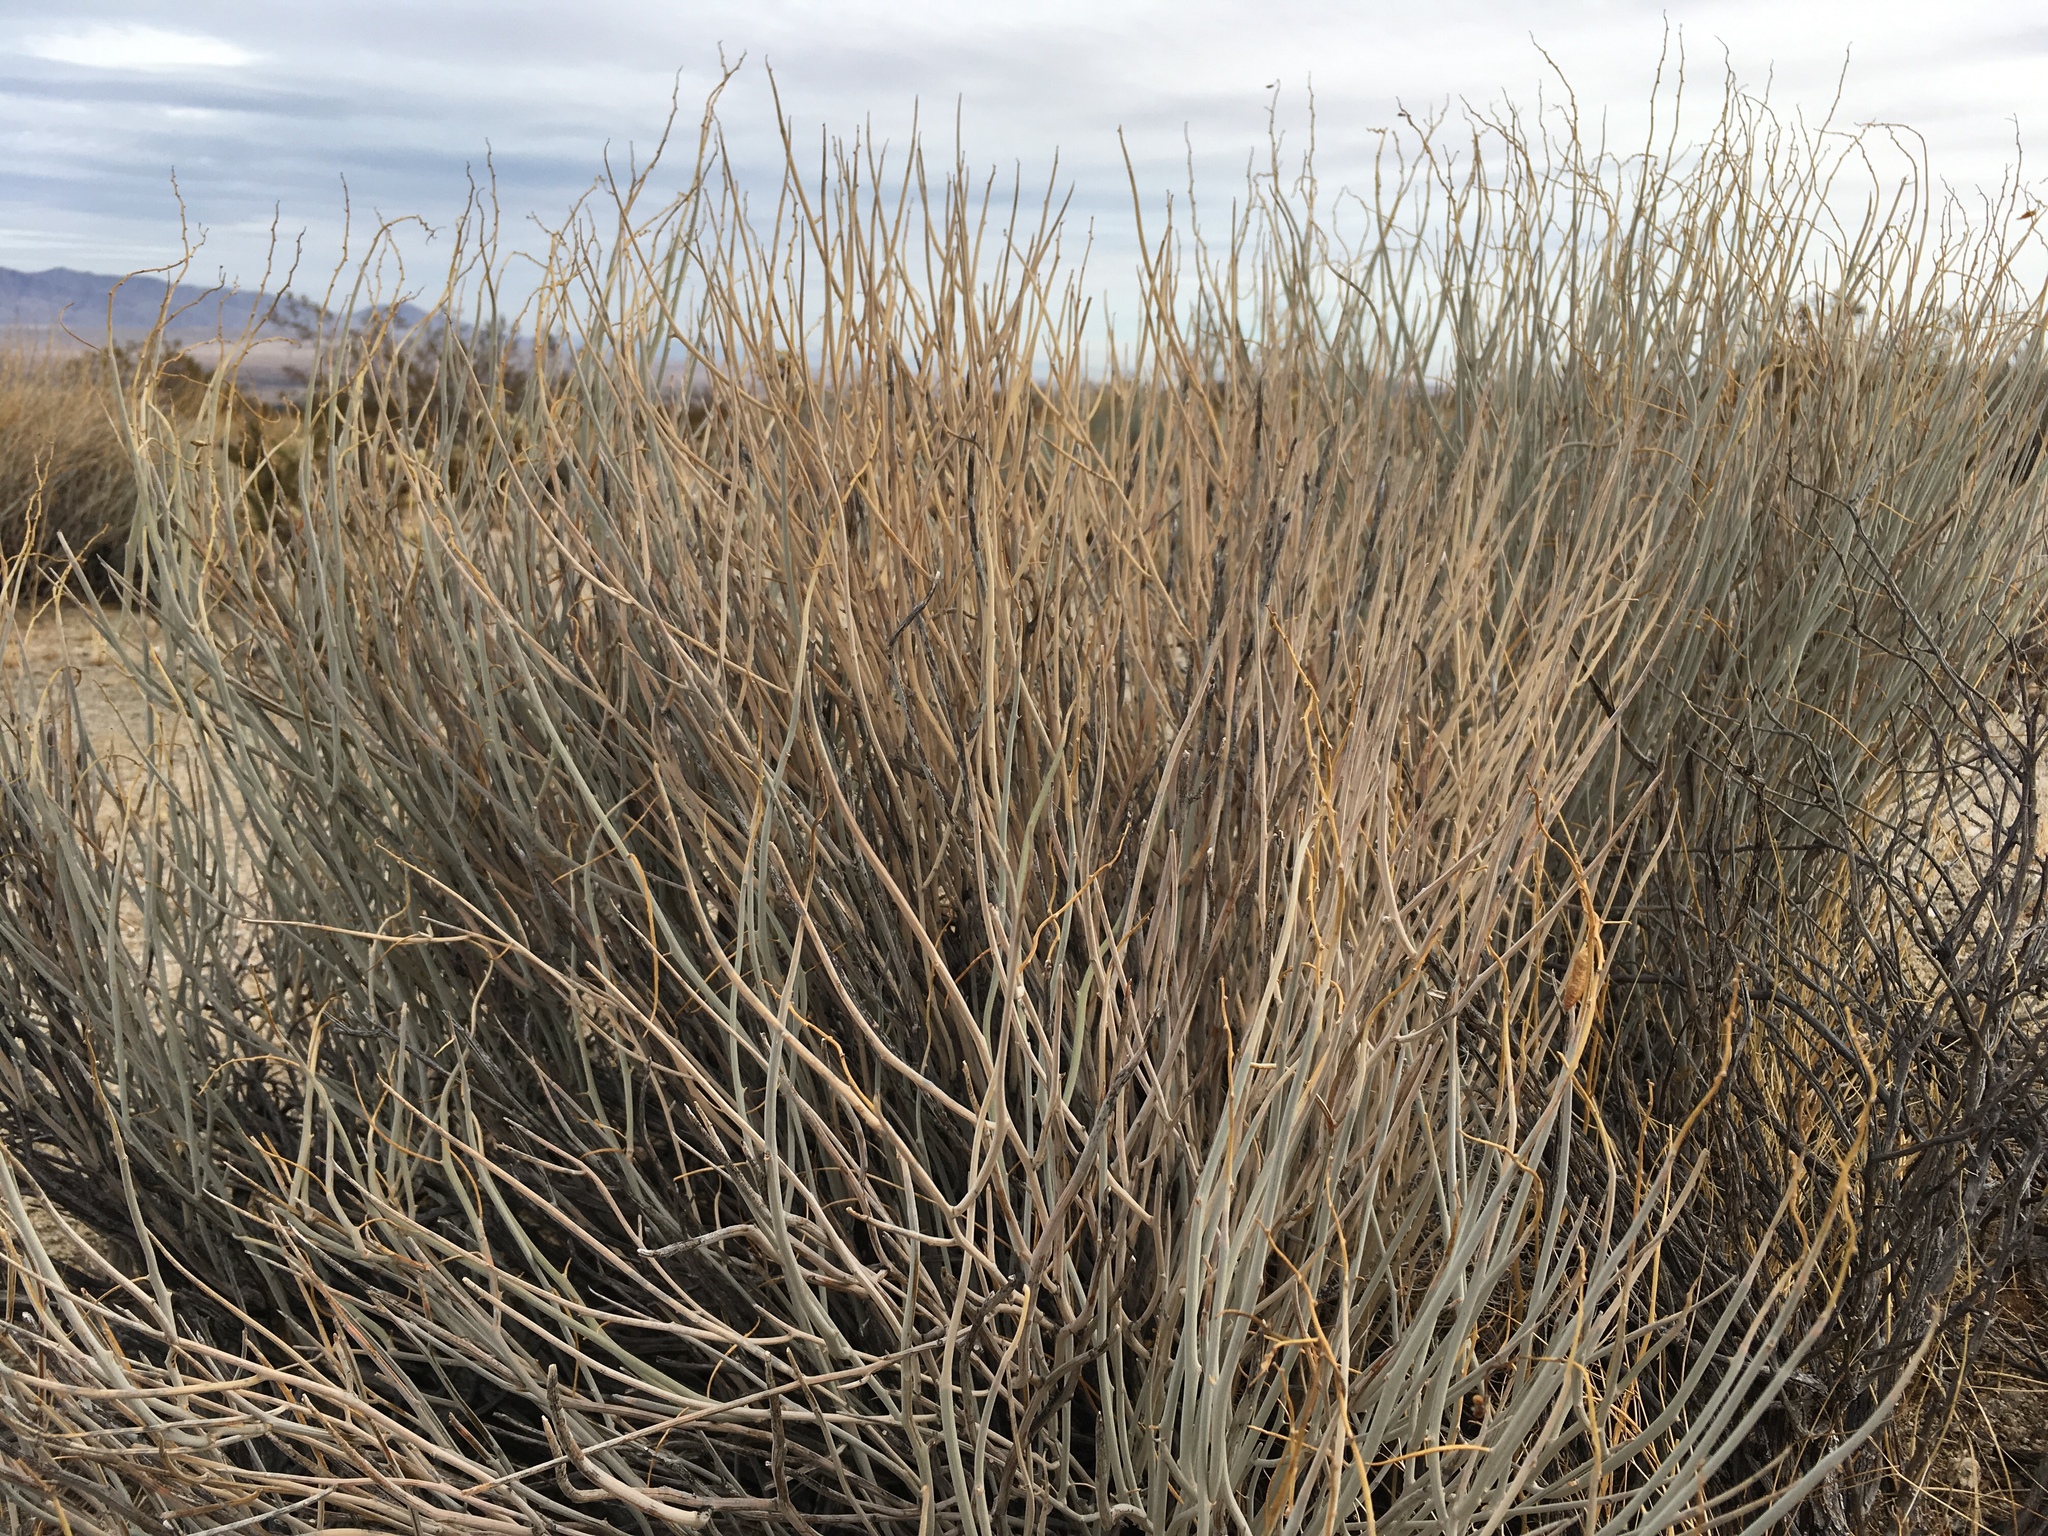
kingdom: Plantae
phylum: Tracheophyta
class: Magnoliopsida
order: Fabales
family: Fabaceae
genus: Senna
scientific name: Senna armata
